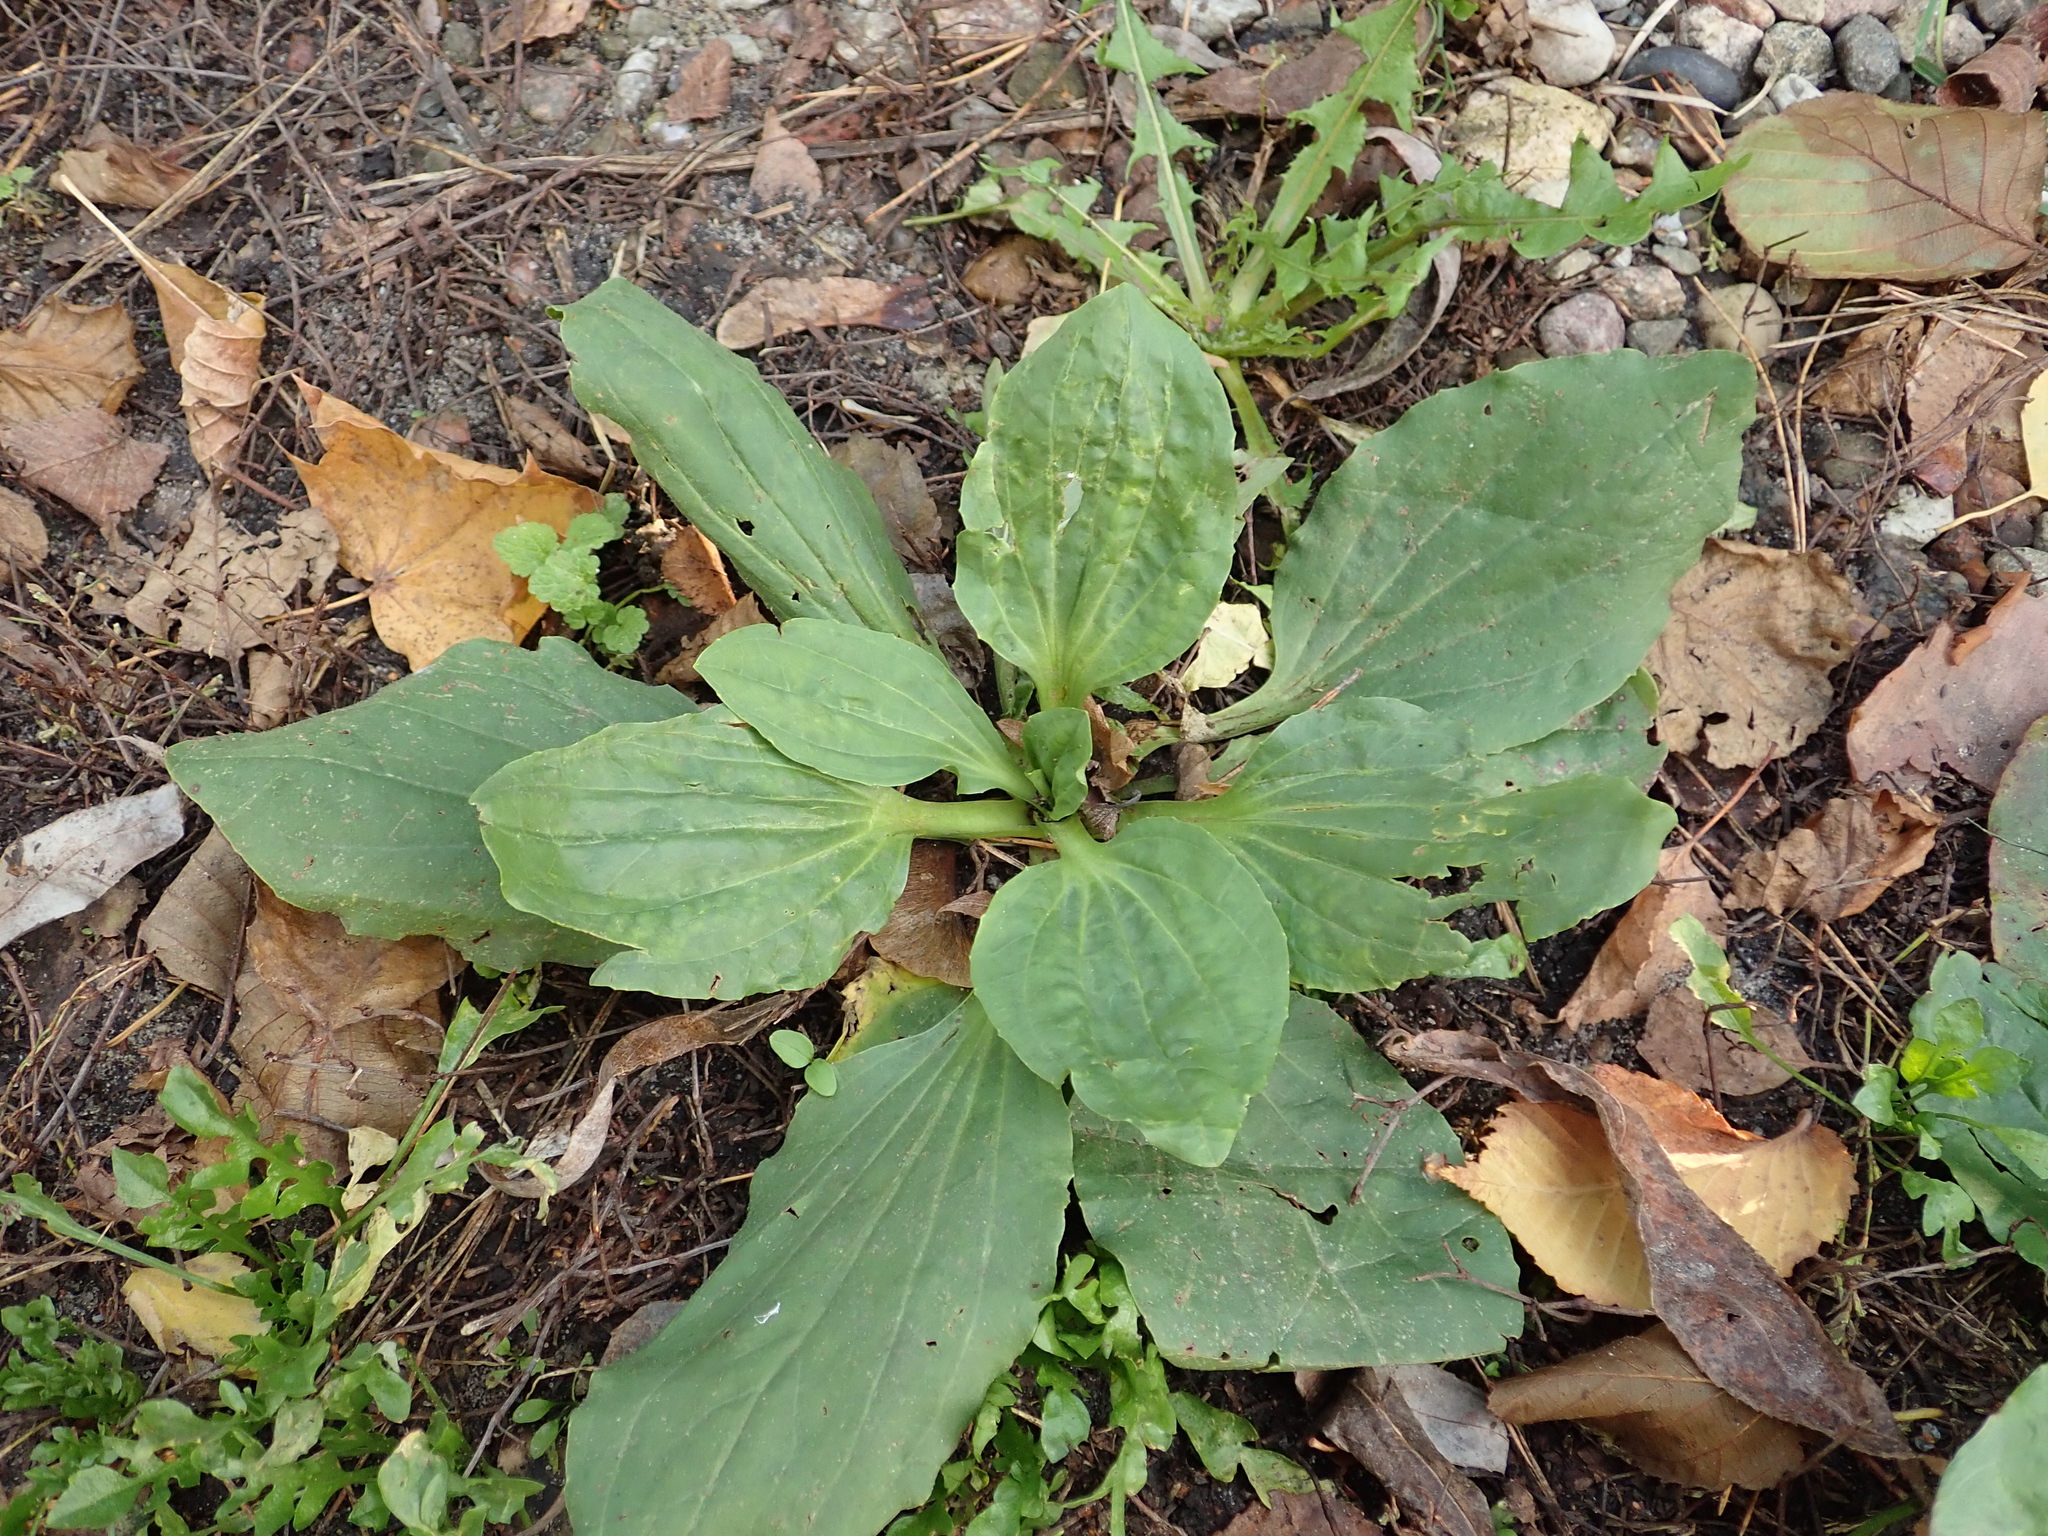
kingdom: Plantae
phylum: Tracheophyta
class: Magnoliopsida
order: Lamiales
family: Plantaginaceae
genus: Plantago
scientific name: Plantago major
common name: Common plantain
